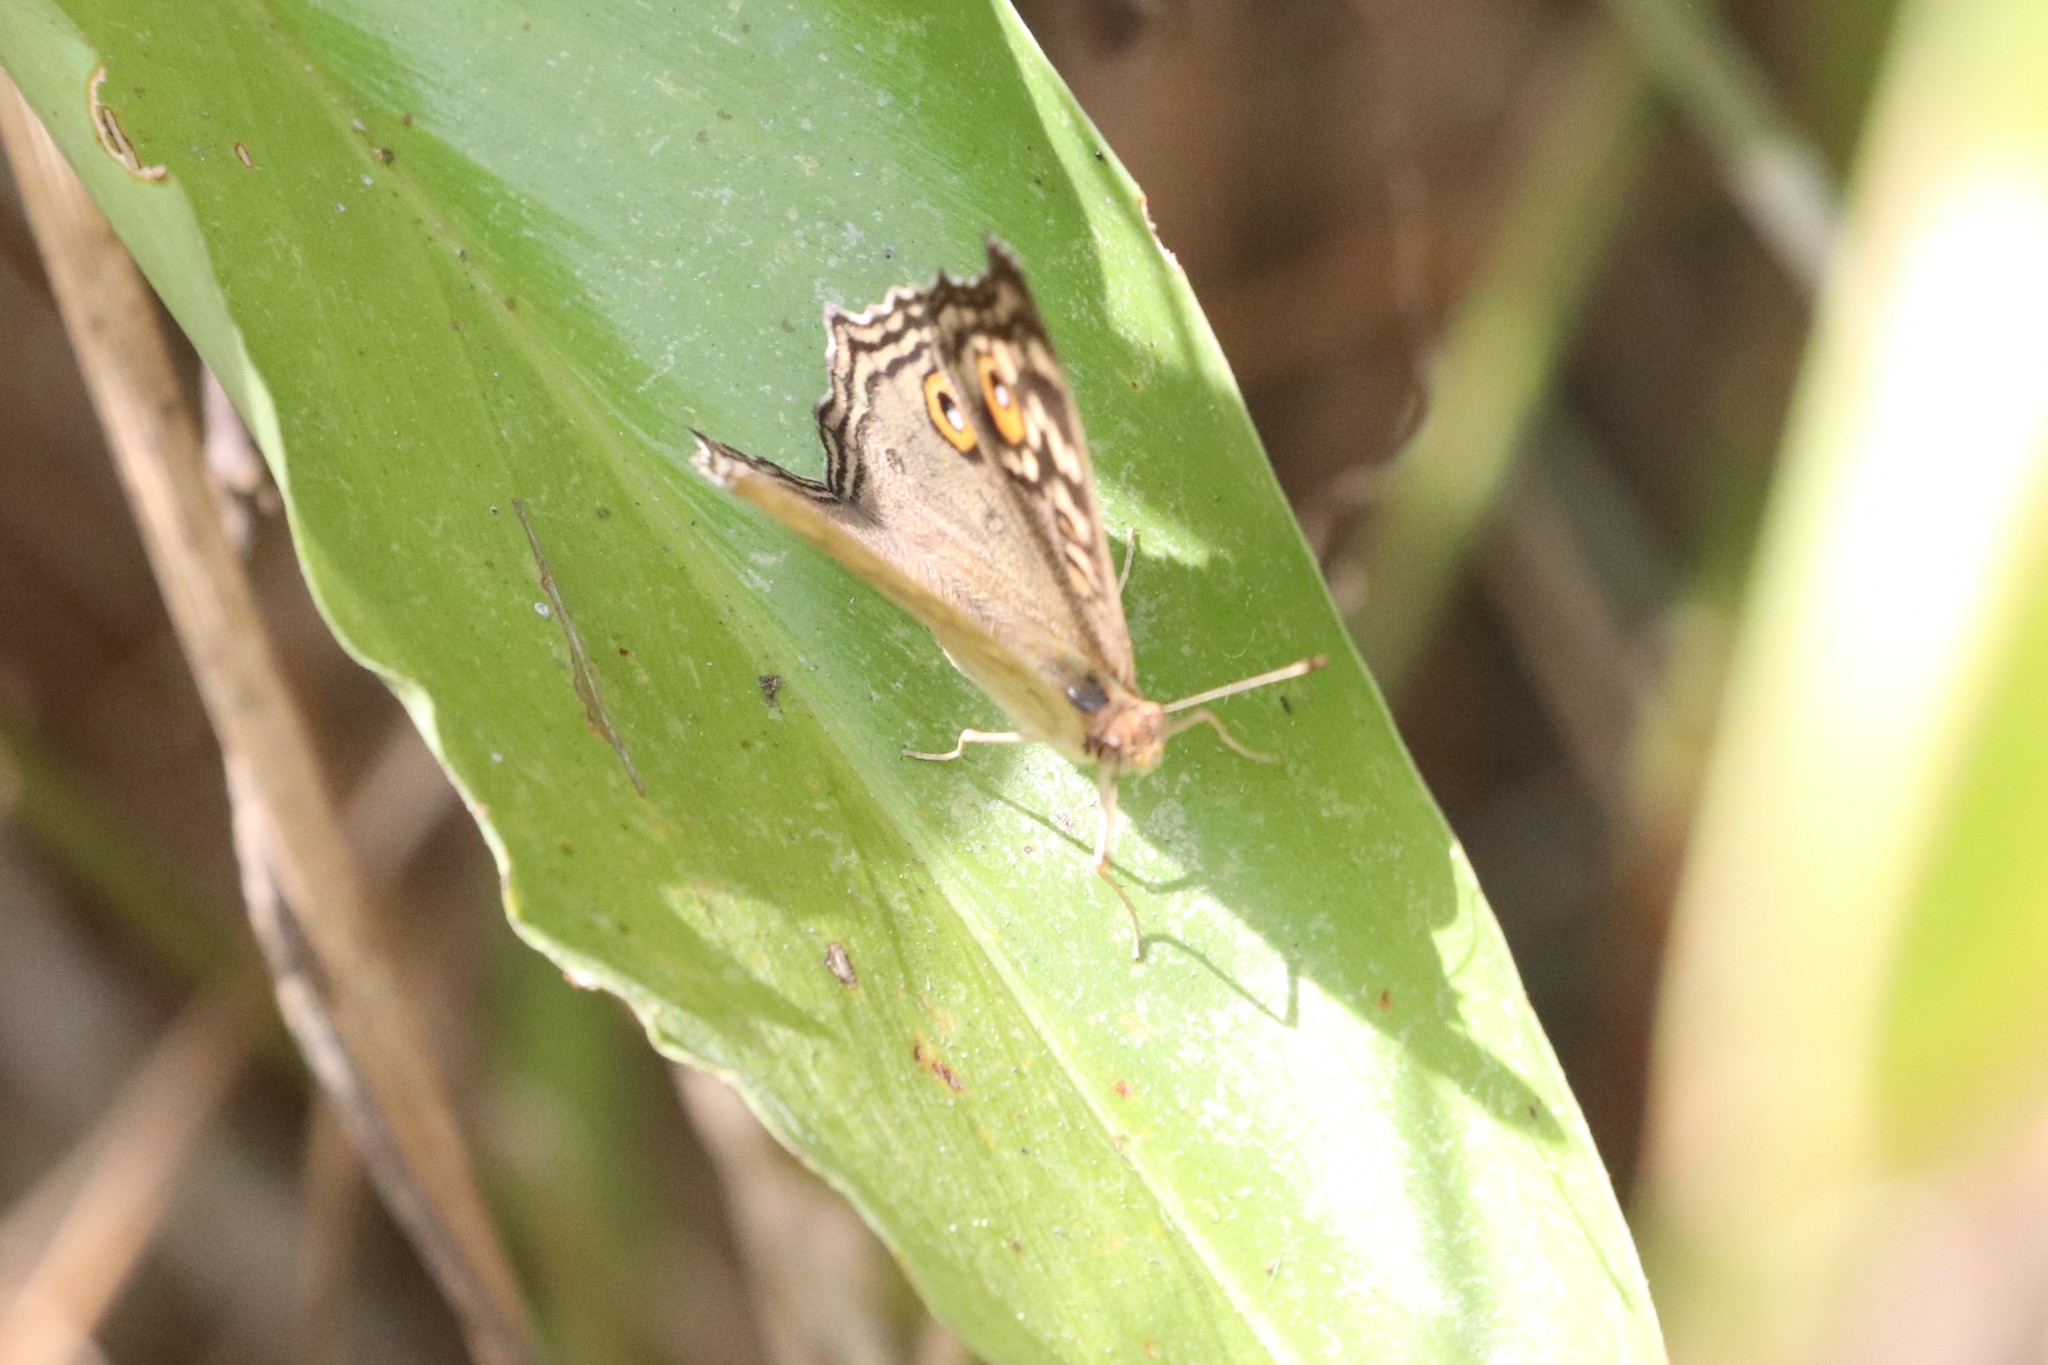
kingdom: Animalia
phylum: Arthropoda
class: Insecta
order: Lepidoptera
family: Nymphalidae
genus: Junonia
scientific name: Junonia atlites
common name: Grey pansy
